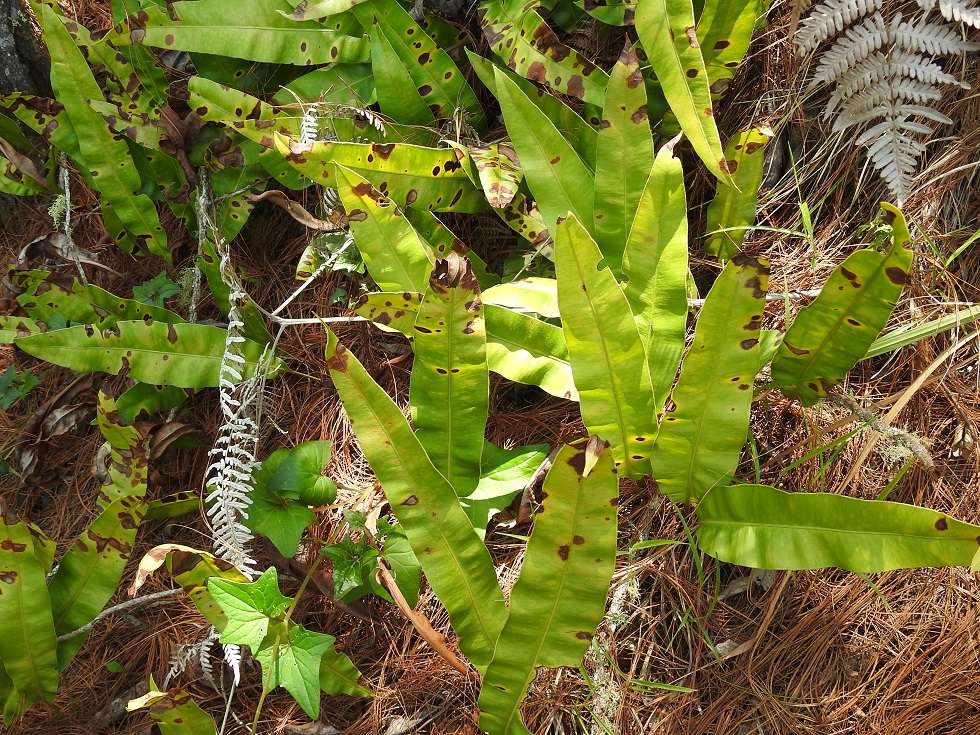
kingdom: Plantae
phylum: Tracheophyta
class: Polypodiopsida
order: Polypodiales
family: Dryopteridaceae
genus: Elaphoglossum
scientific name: Elaphoglossum mesoamericanum
